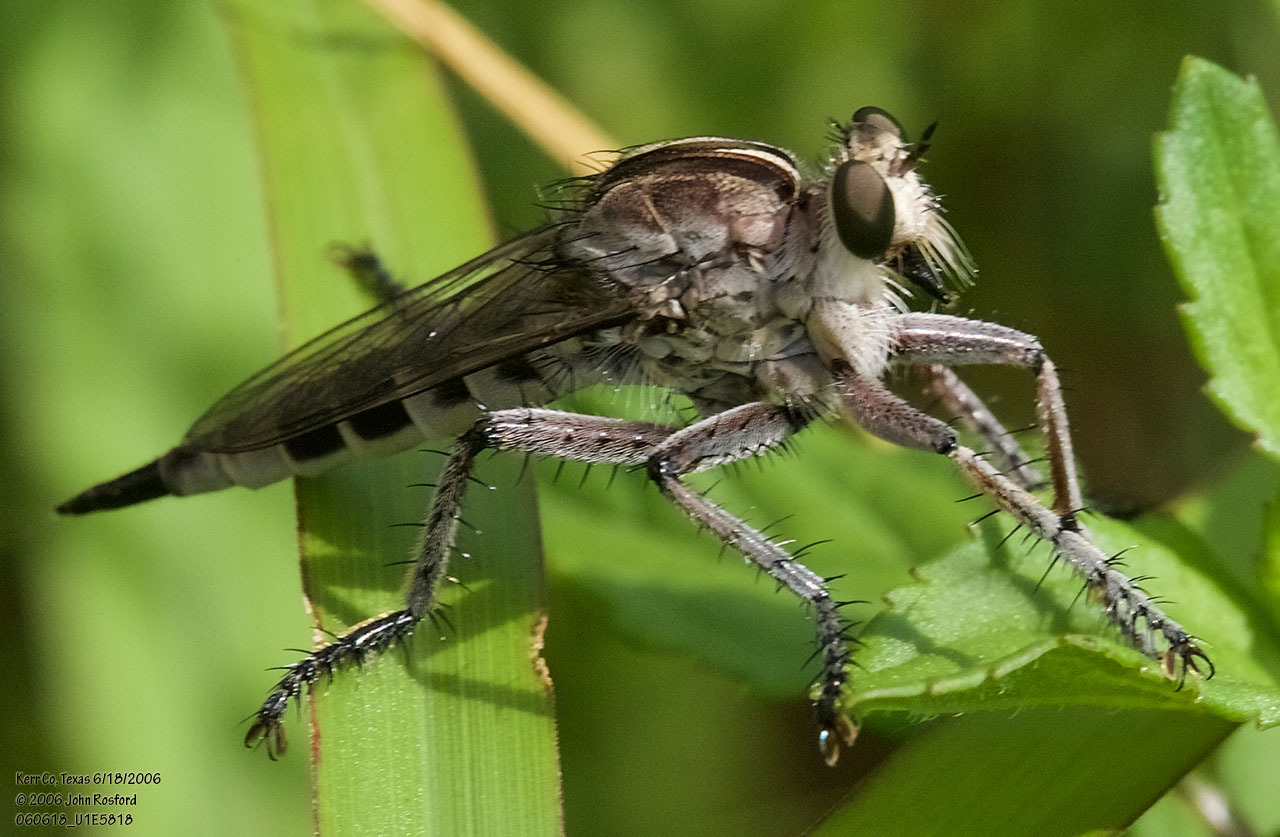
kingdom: Animalia
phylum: Arthropoda
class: Insecta
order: Diptera
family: Asilidae
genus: Triorla
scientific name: Triorla interrupta
